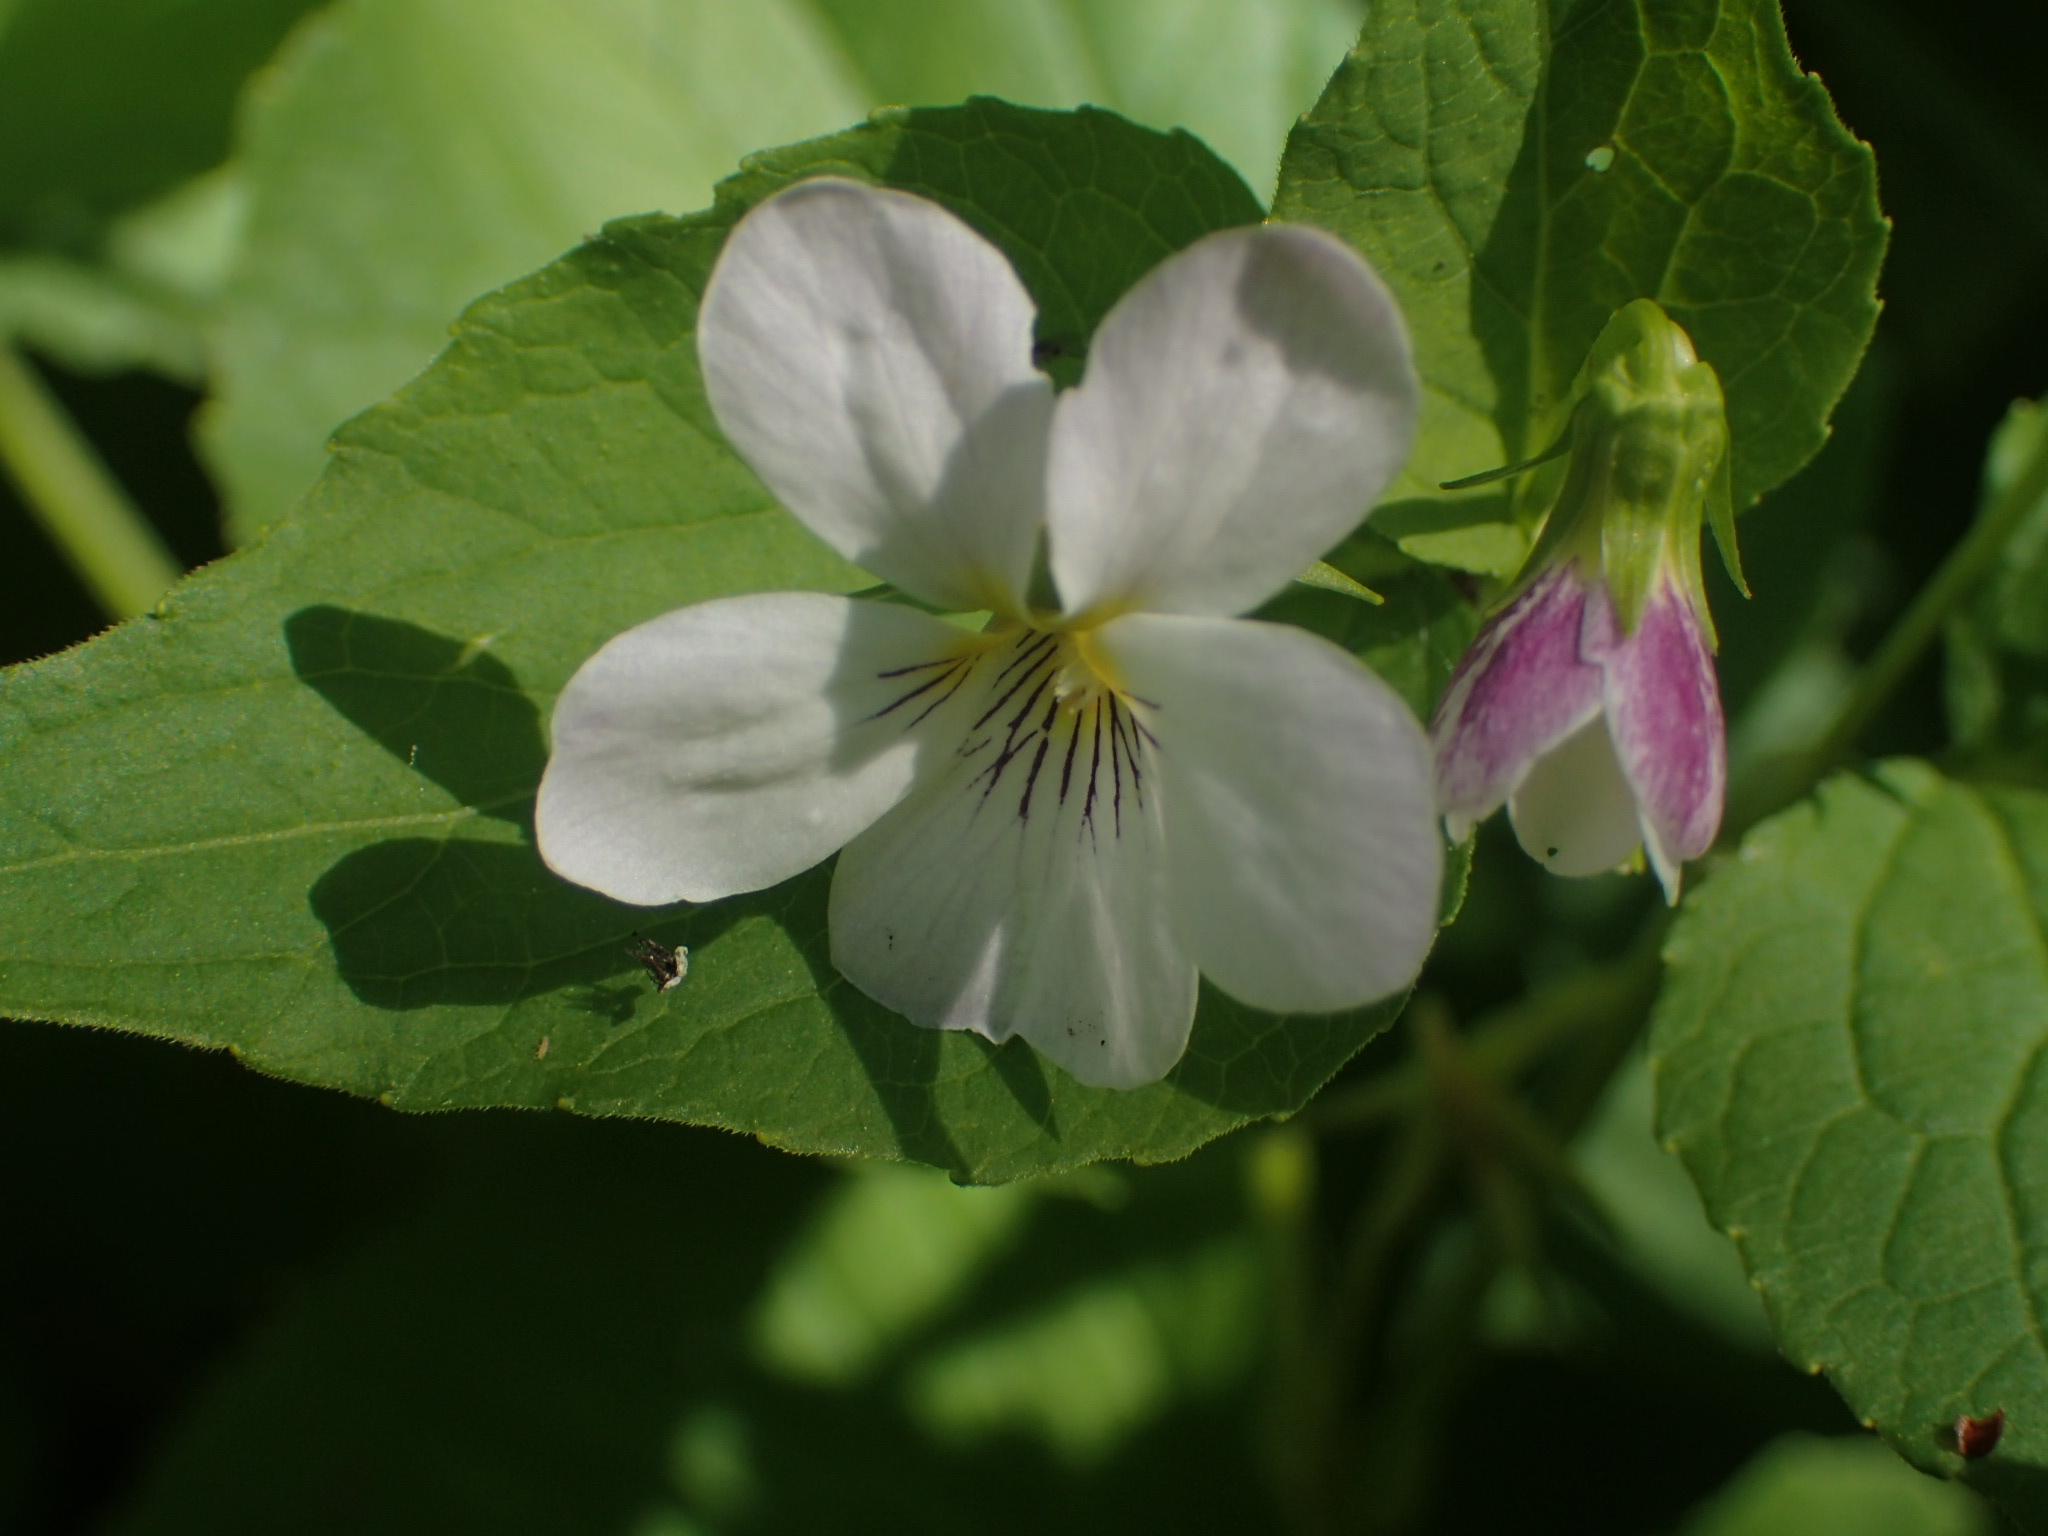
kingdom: Plantae
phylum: Tracheophyta
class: Magnoliopsida
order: Malpighiales
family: Violaceae
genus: Viola
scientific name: Viola rugulosa
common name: Creeping-root violet
